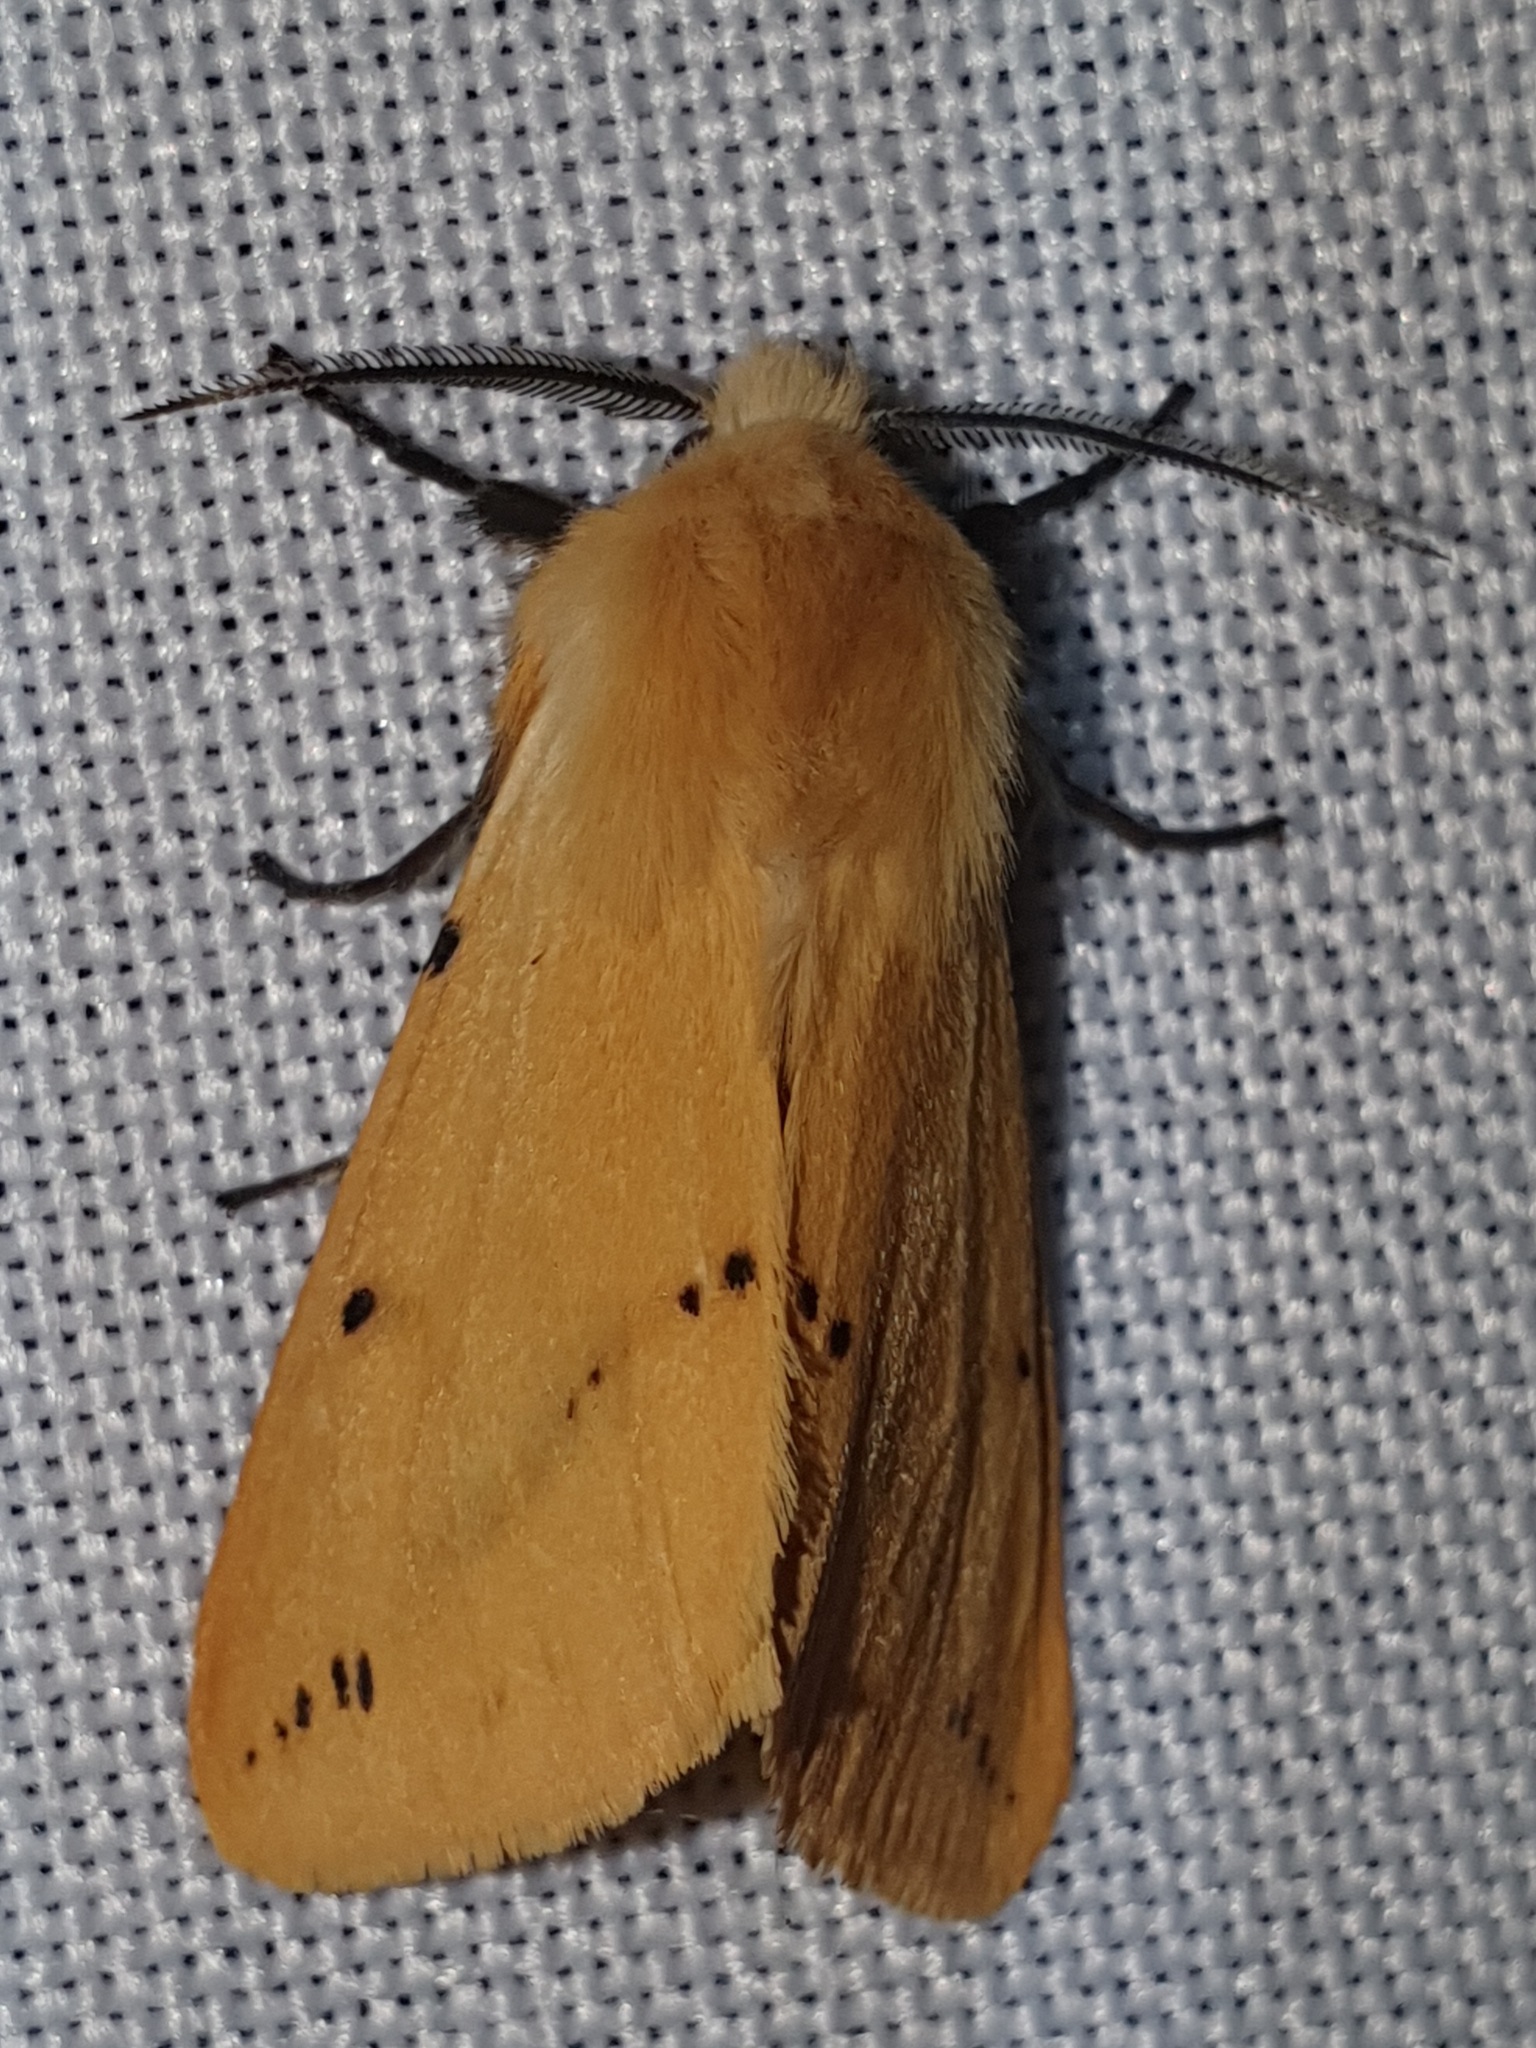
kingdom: Animalia
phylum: Arthropoda
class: Insecta
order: Lepidoptera
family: Erebidae
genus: Spilarctia
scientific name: Spilarctia lutea
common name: Buff ermine
